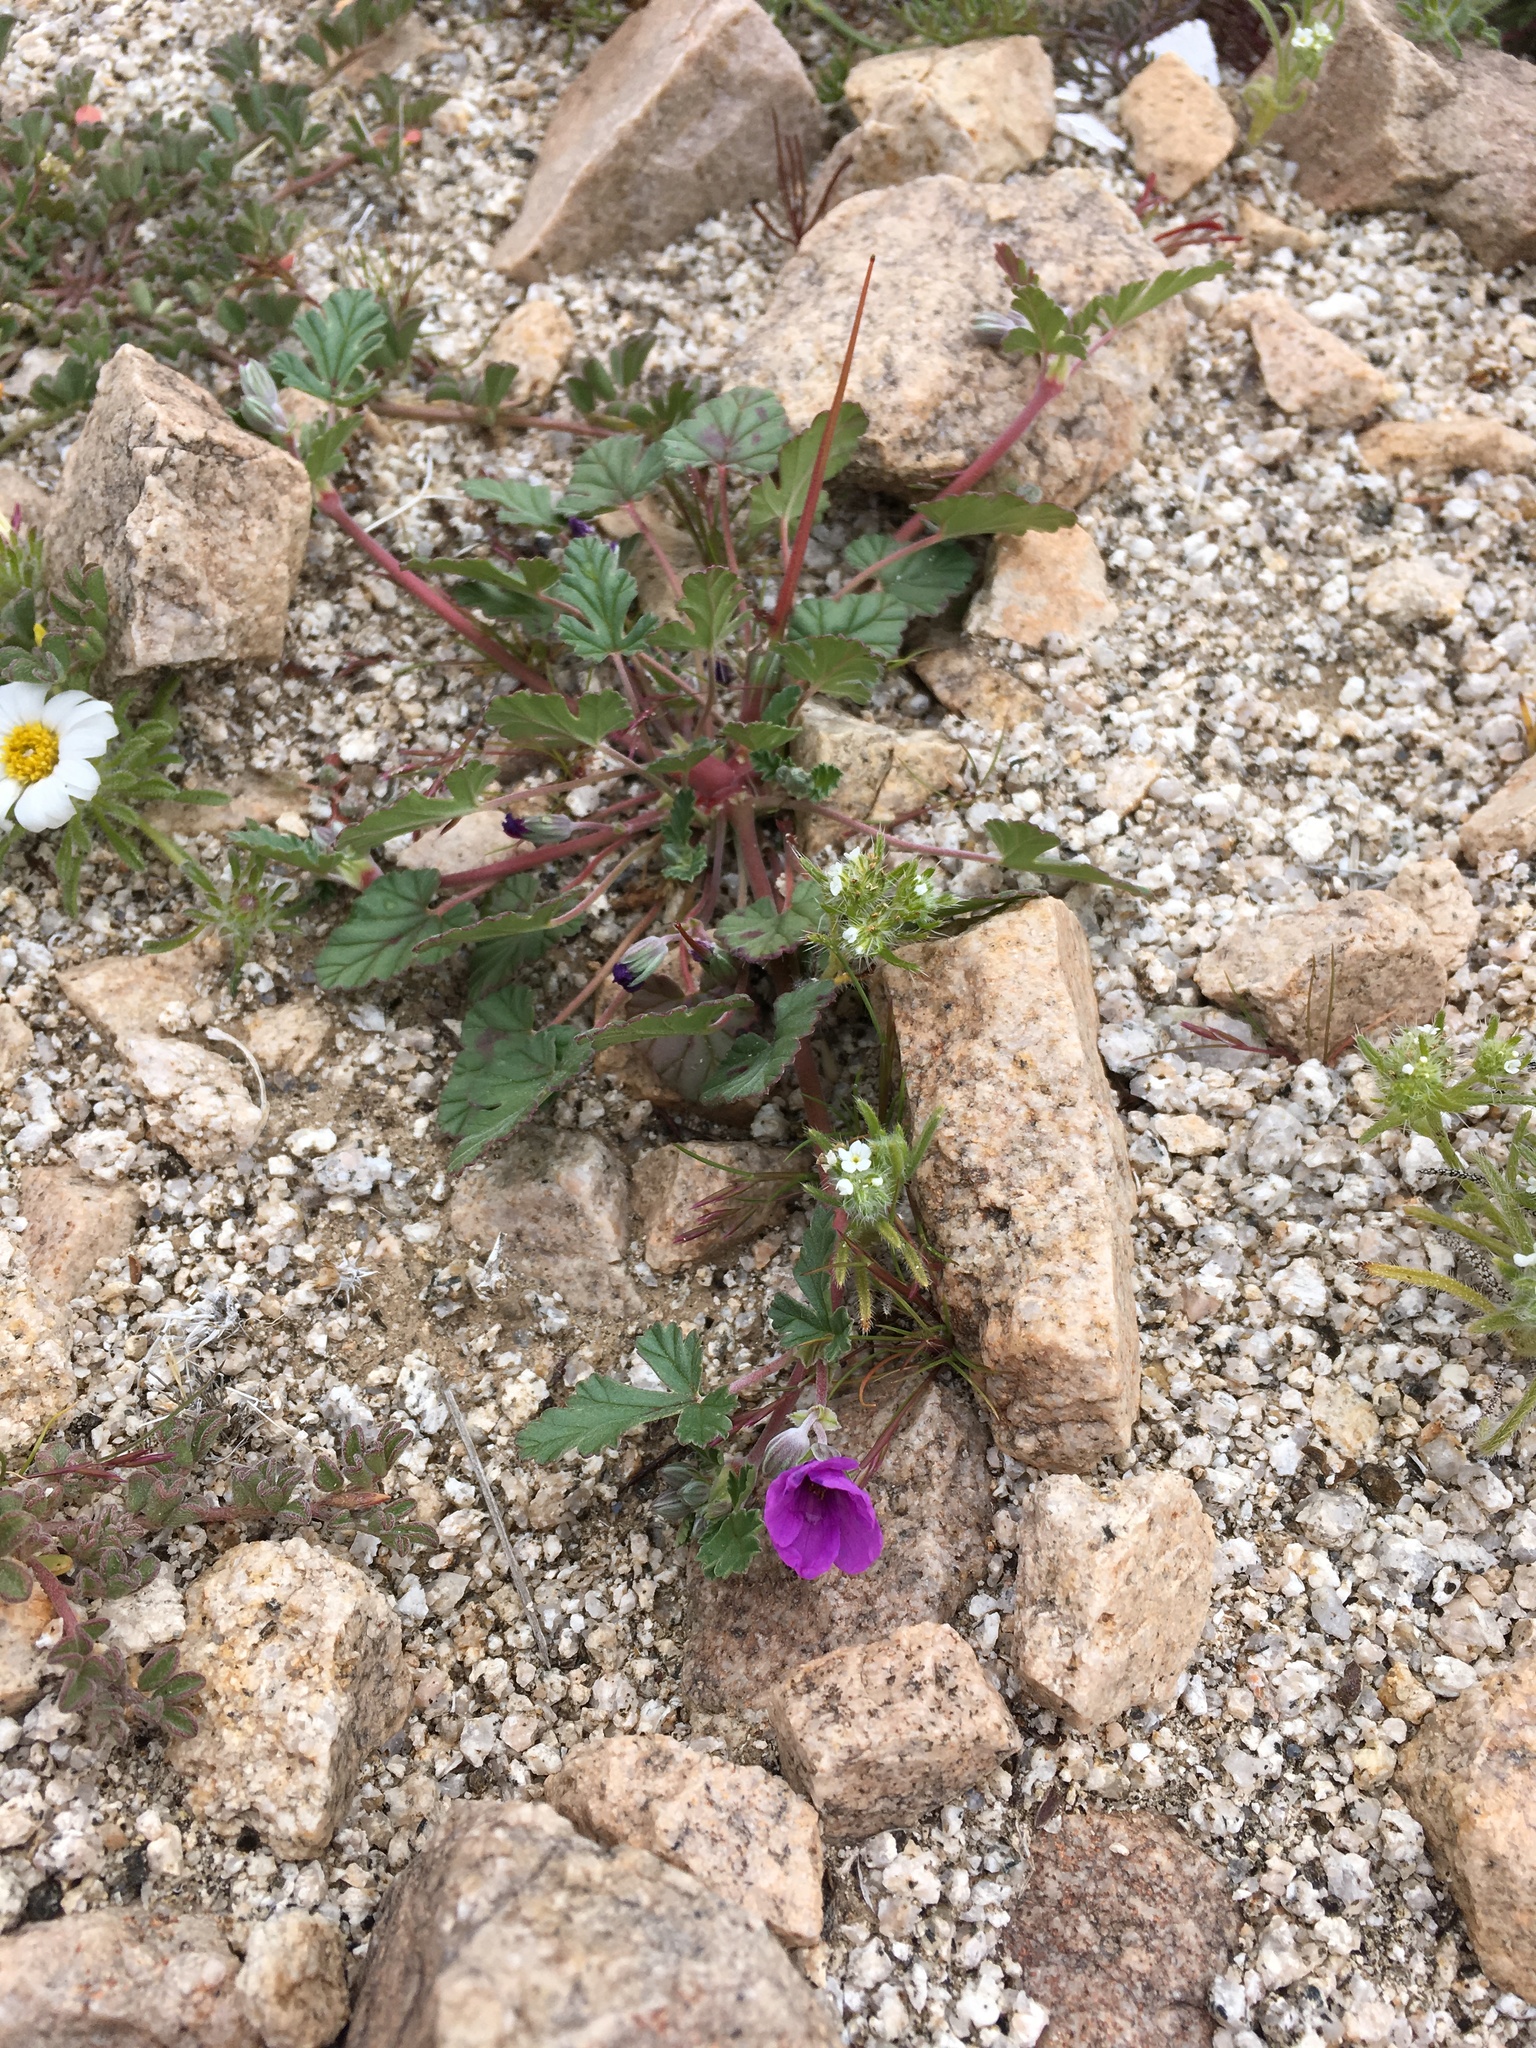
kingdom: Plantae
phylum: Tracheophyta
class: Magnoliopsida
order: Geraniales
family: Geraniaceae
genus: Erodium
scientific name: Erodium texanum
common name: Texas stork's-bill
